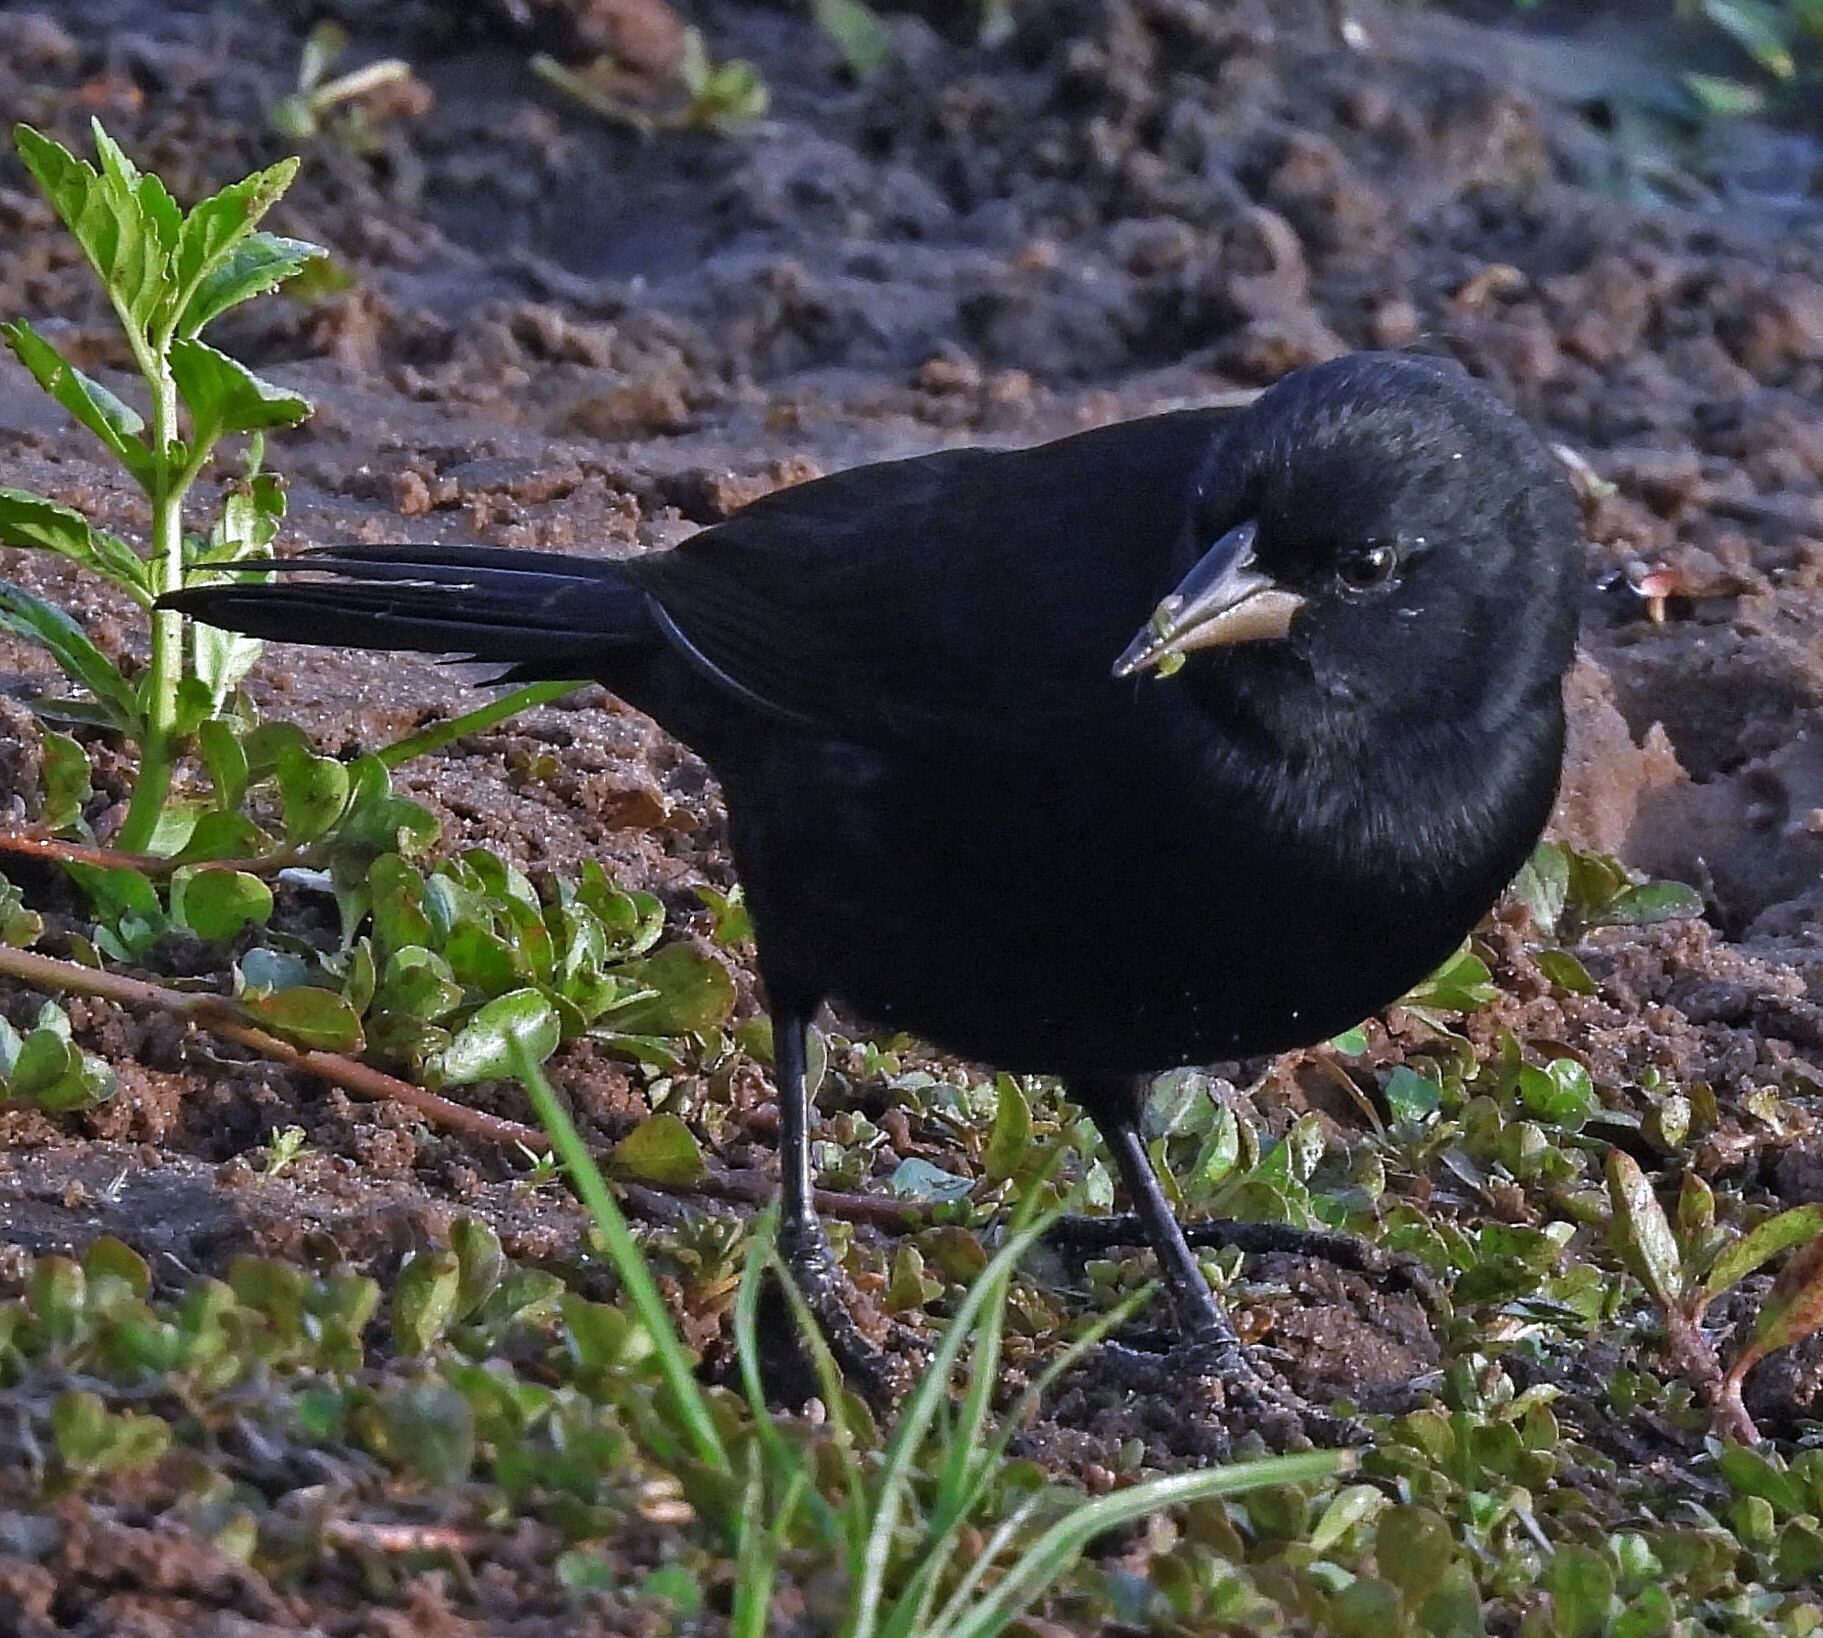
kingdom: Animalia
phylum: Chordata
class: Aves
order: Passeriformes
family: Icteridae
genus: Agelasticus
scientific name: Agelasticus cyanopus
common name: Unicolored blackbird
